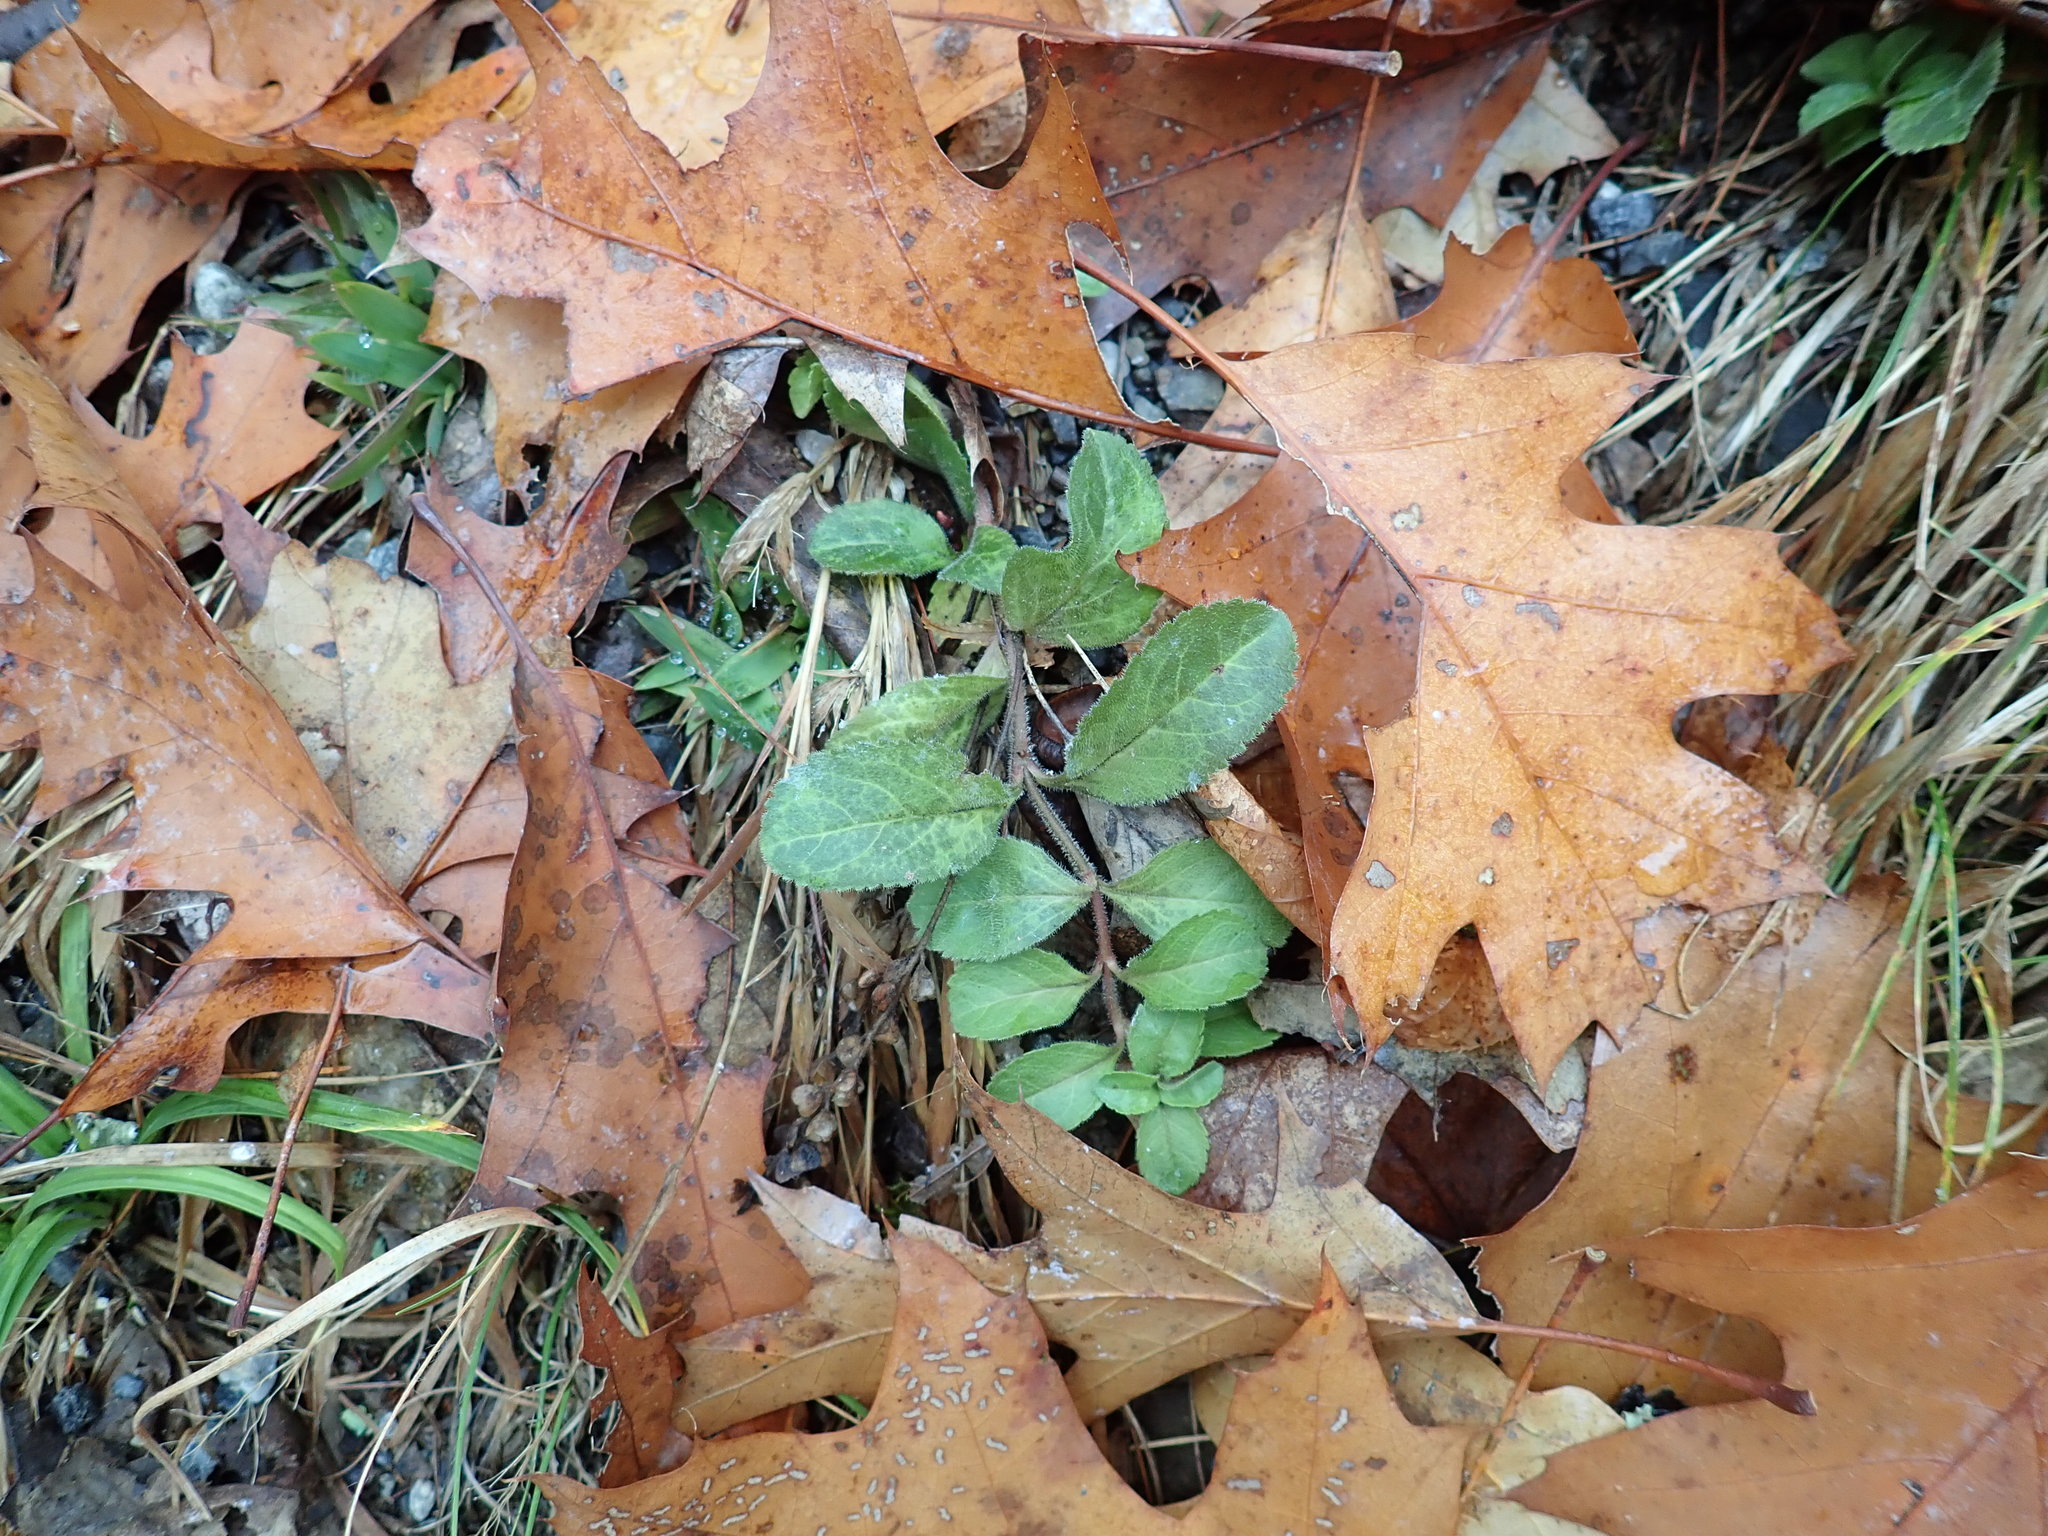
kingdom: Plantae
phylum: Tracheophyta
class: Magnoliopsida
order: Lamiales
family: Plantaginaceae
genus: Veronica
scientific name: Veronica officinalis
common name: Common speedwell
